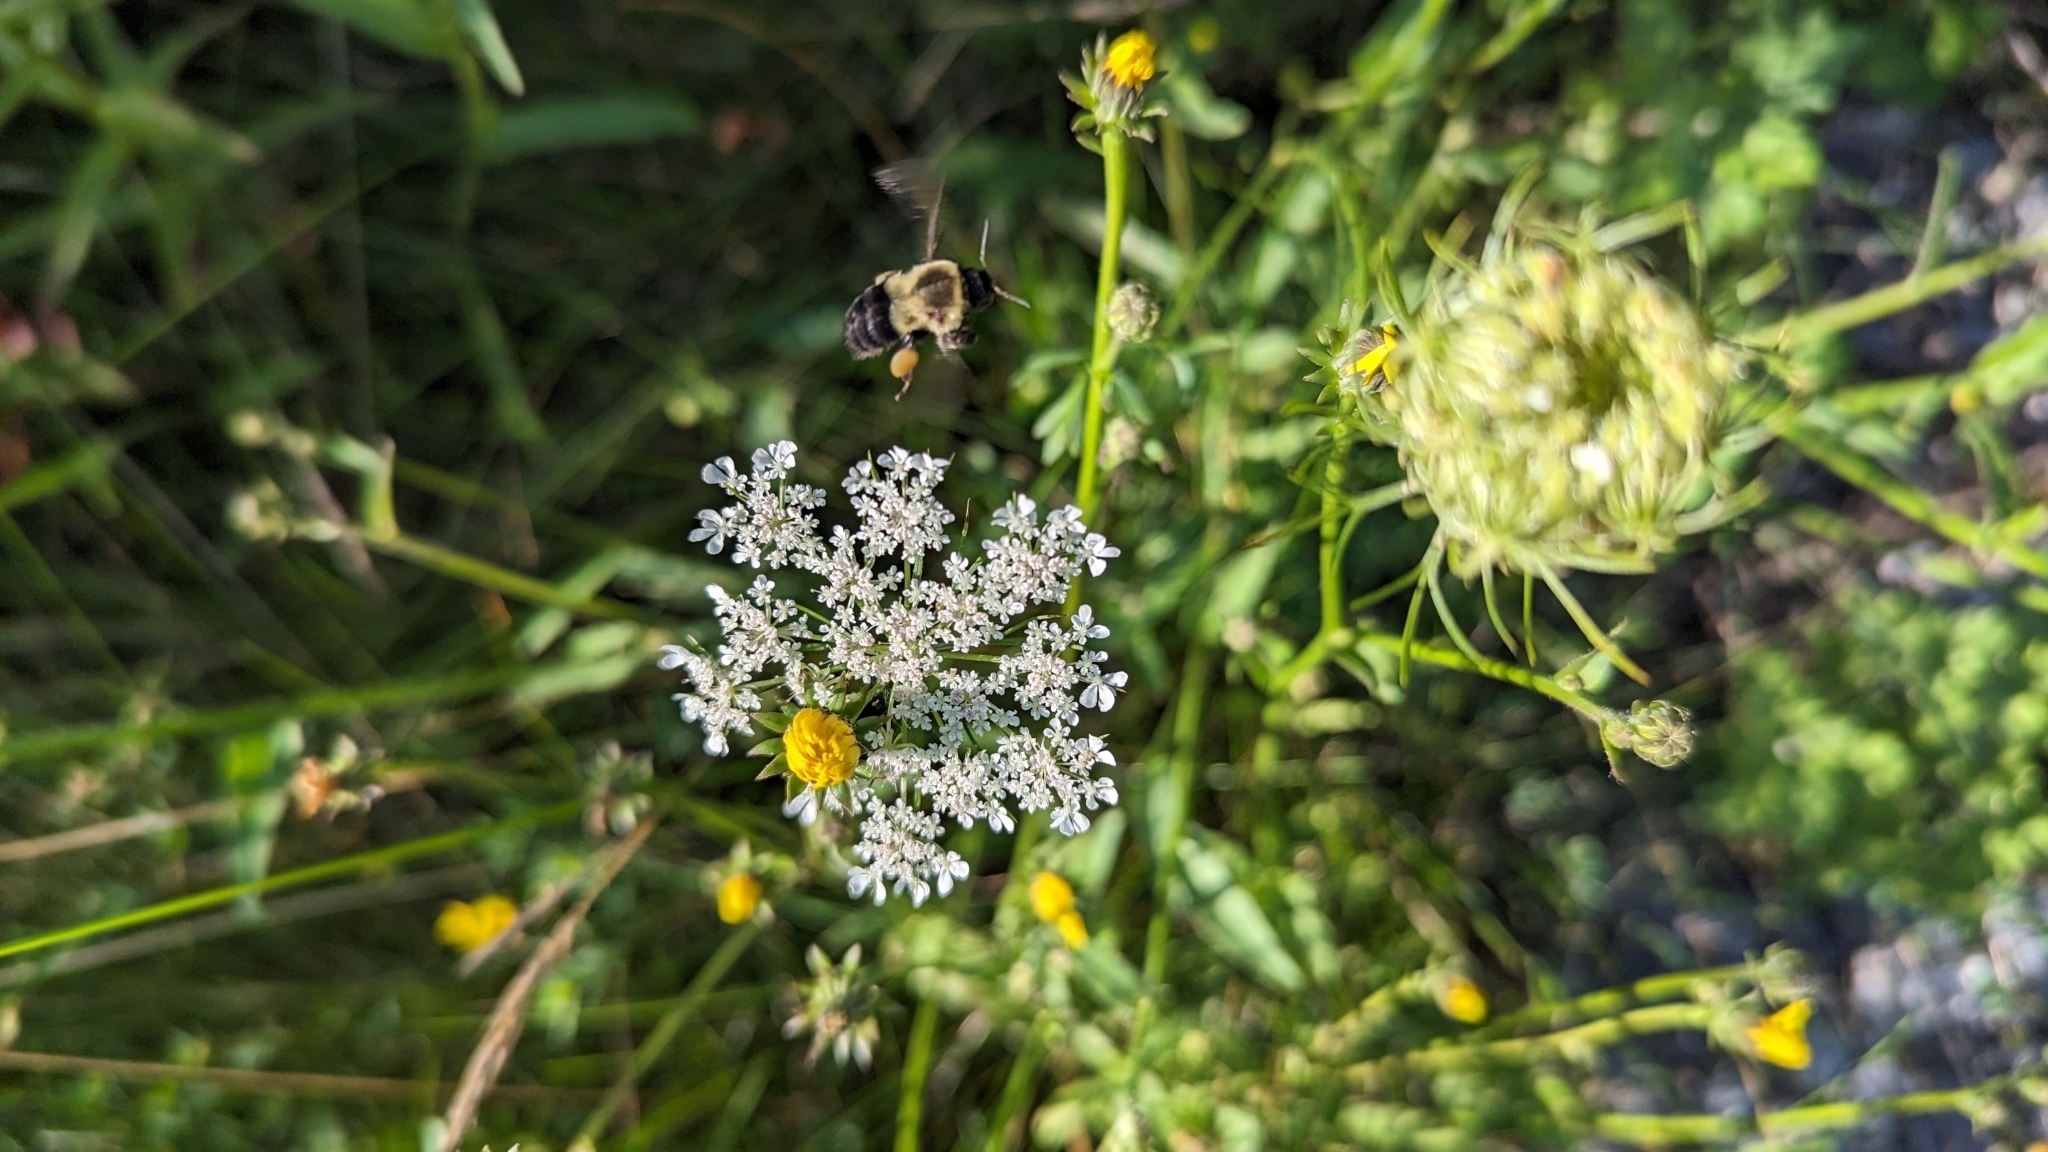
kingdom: Animalia
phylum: Arthropoda
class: Insecta
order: Hymenoptera
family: Apidae
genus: Bombus
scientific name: Bombus impatiens
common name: Common eastern bumble bee
